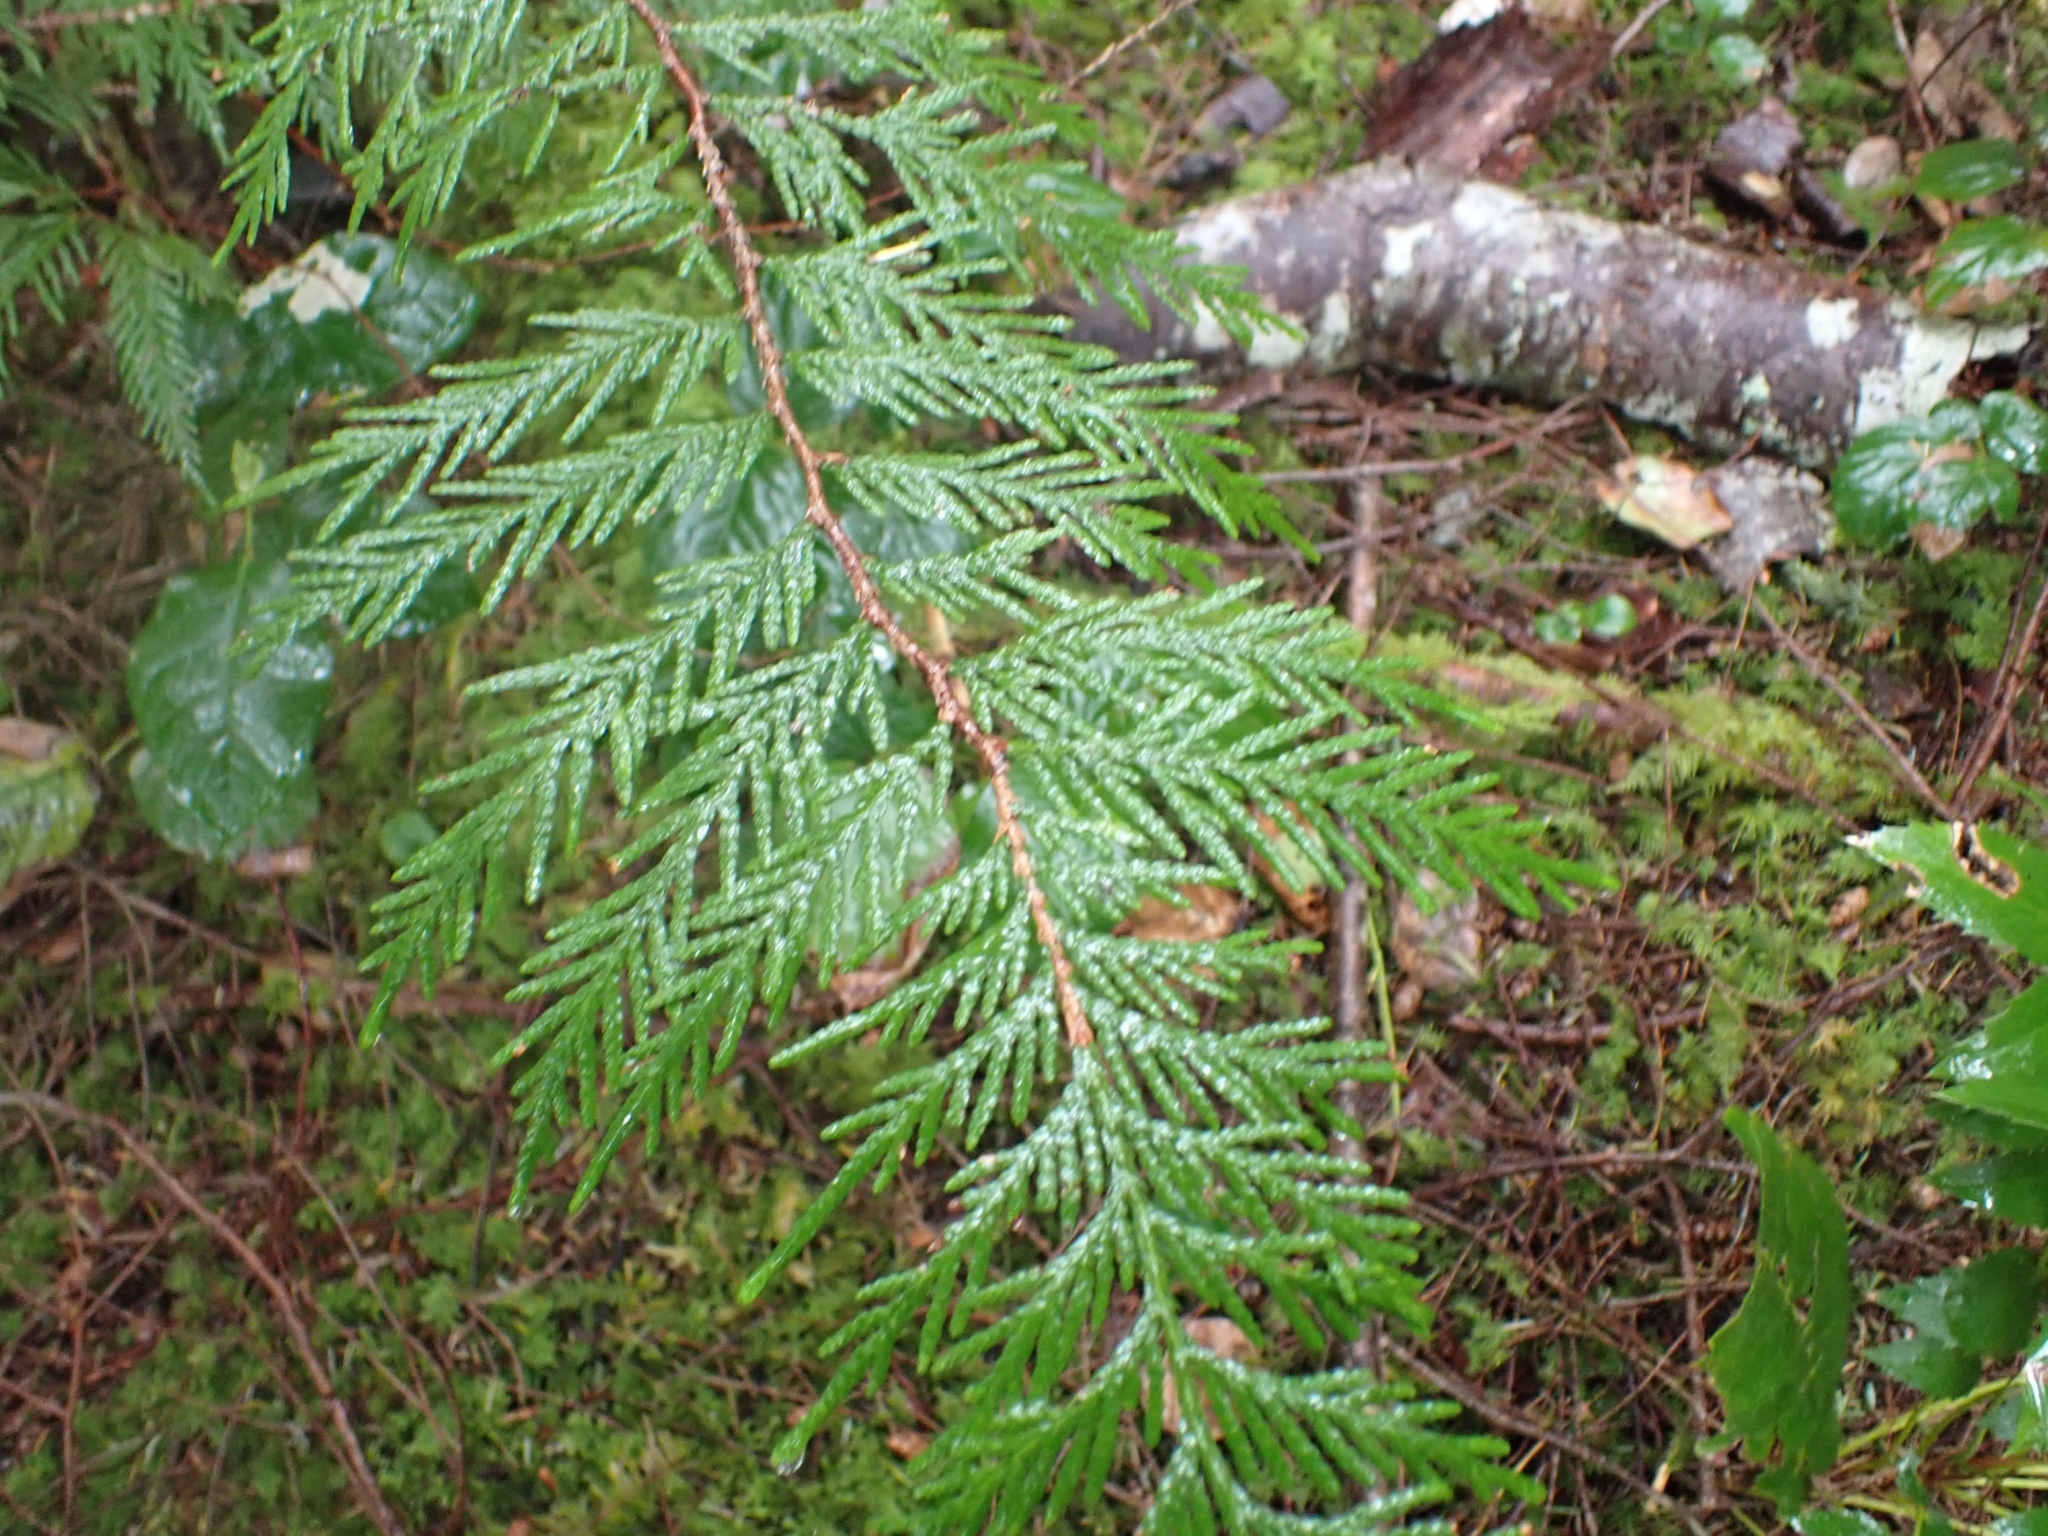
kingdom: Plantae
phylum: Tracheophyta
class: Pinopsida
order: Pinales
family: Cupressaceae
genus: Thuja
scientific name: Thuja plicata
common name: Western red-cedar
